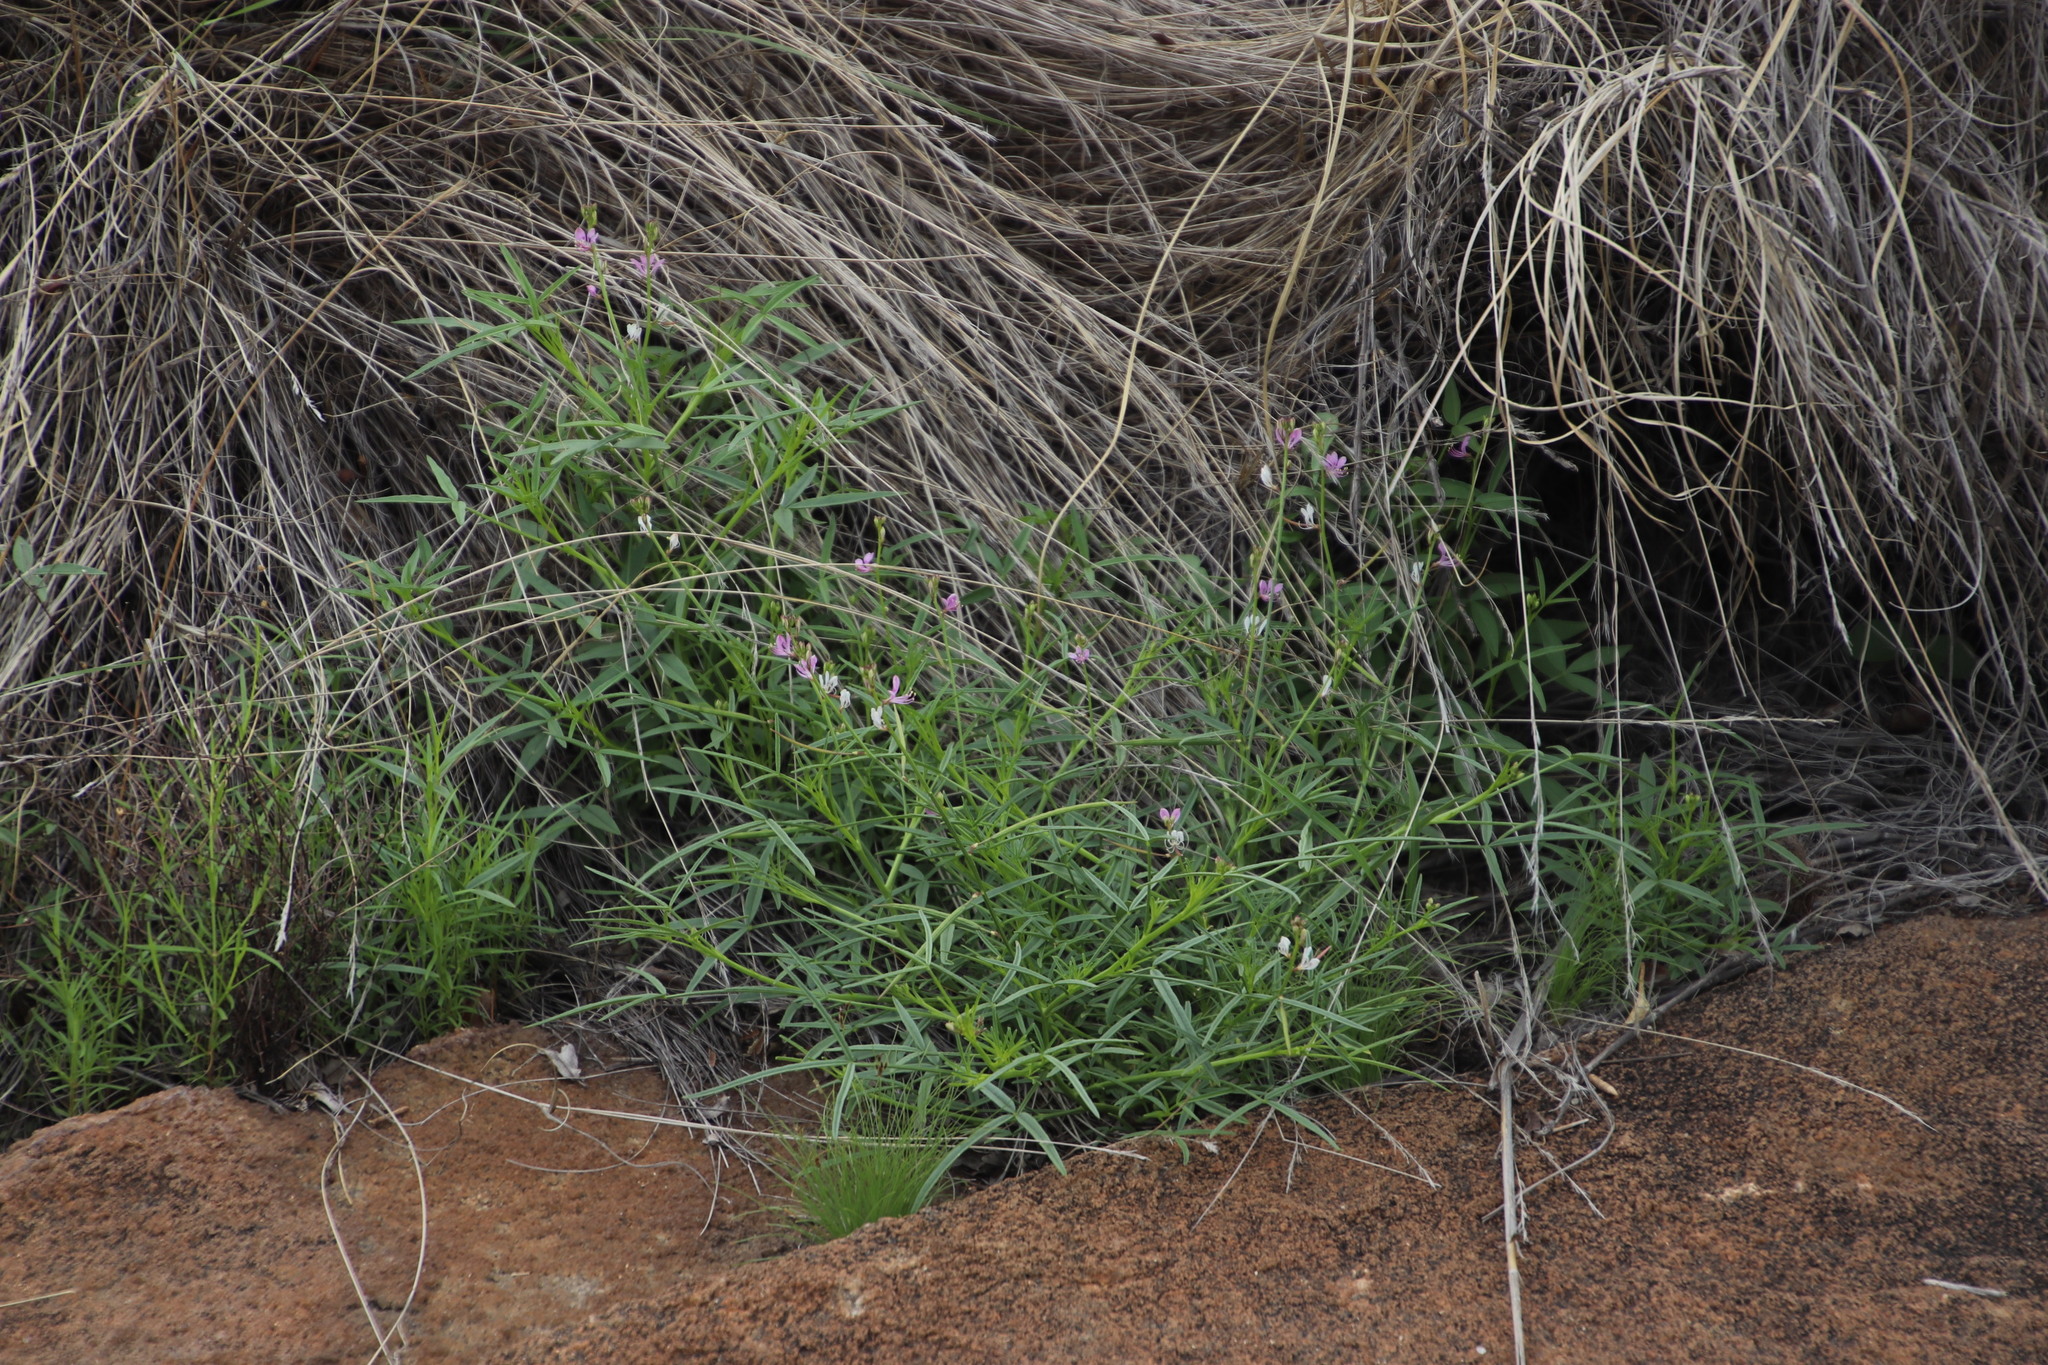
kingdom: Plantae
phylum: Tracheophyta
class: Magnoliopsida
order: Brassicales
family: Cleomaceae
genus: Sieruela
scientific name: Sieruela rubella
